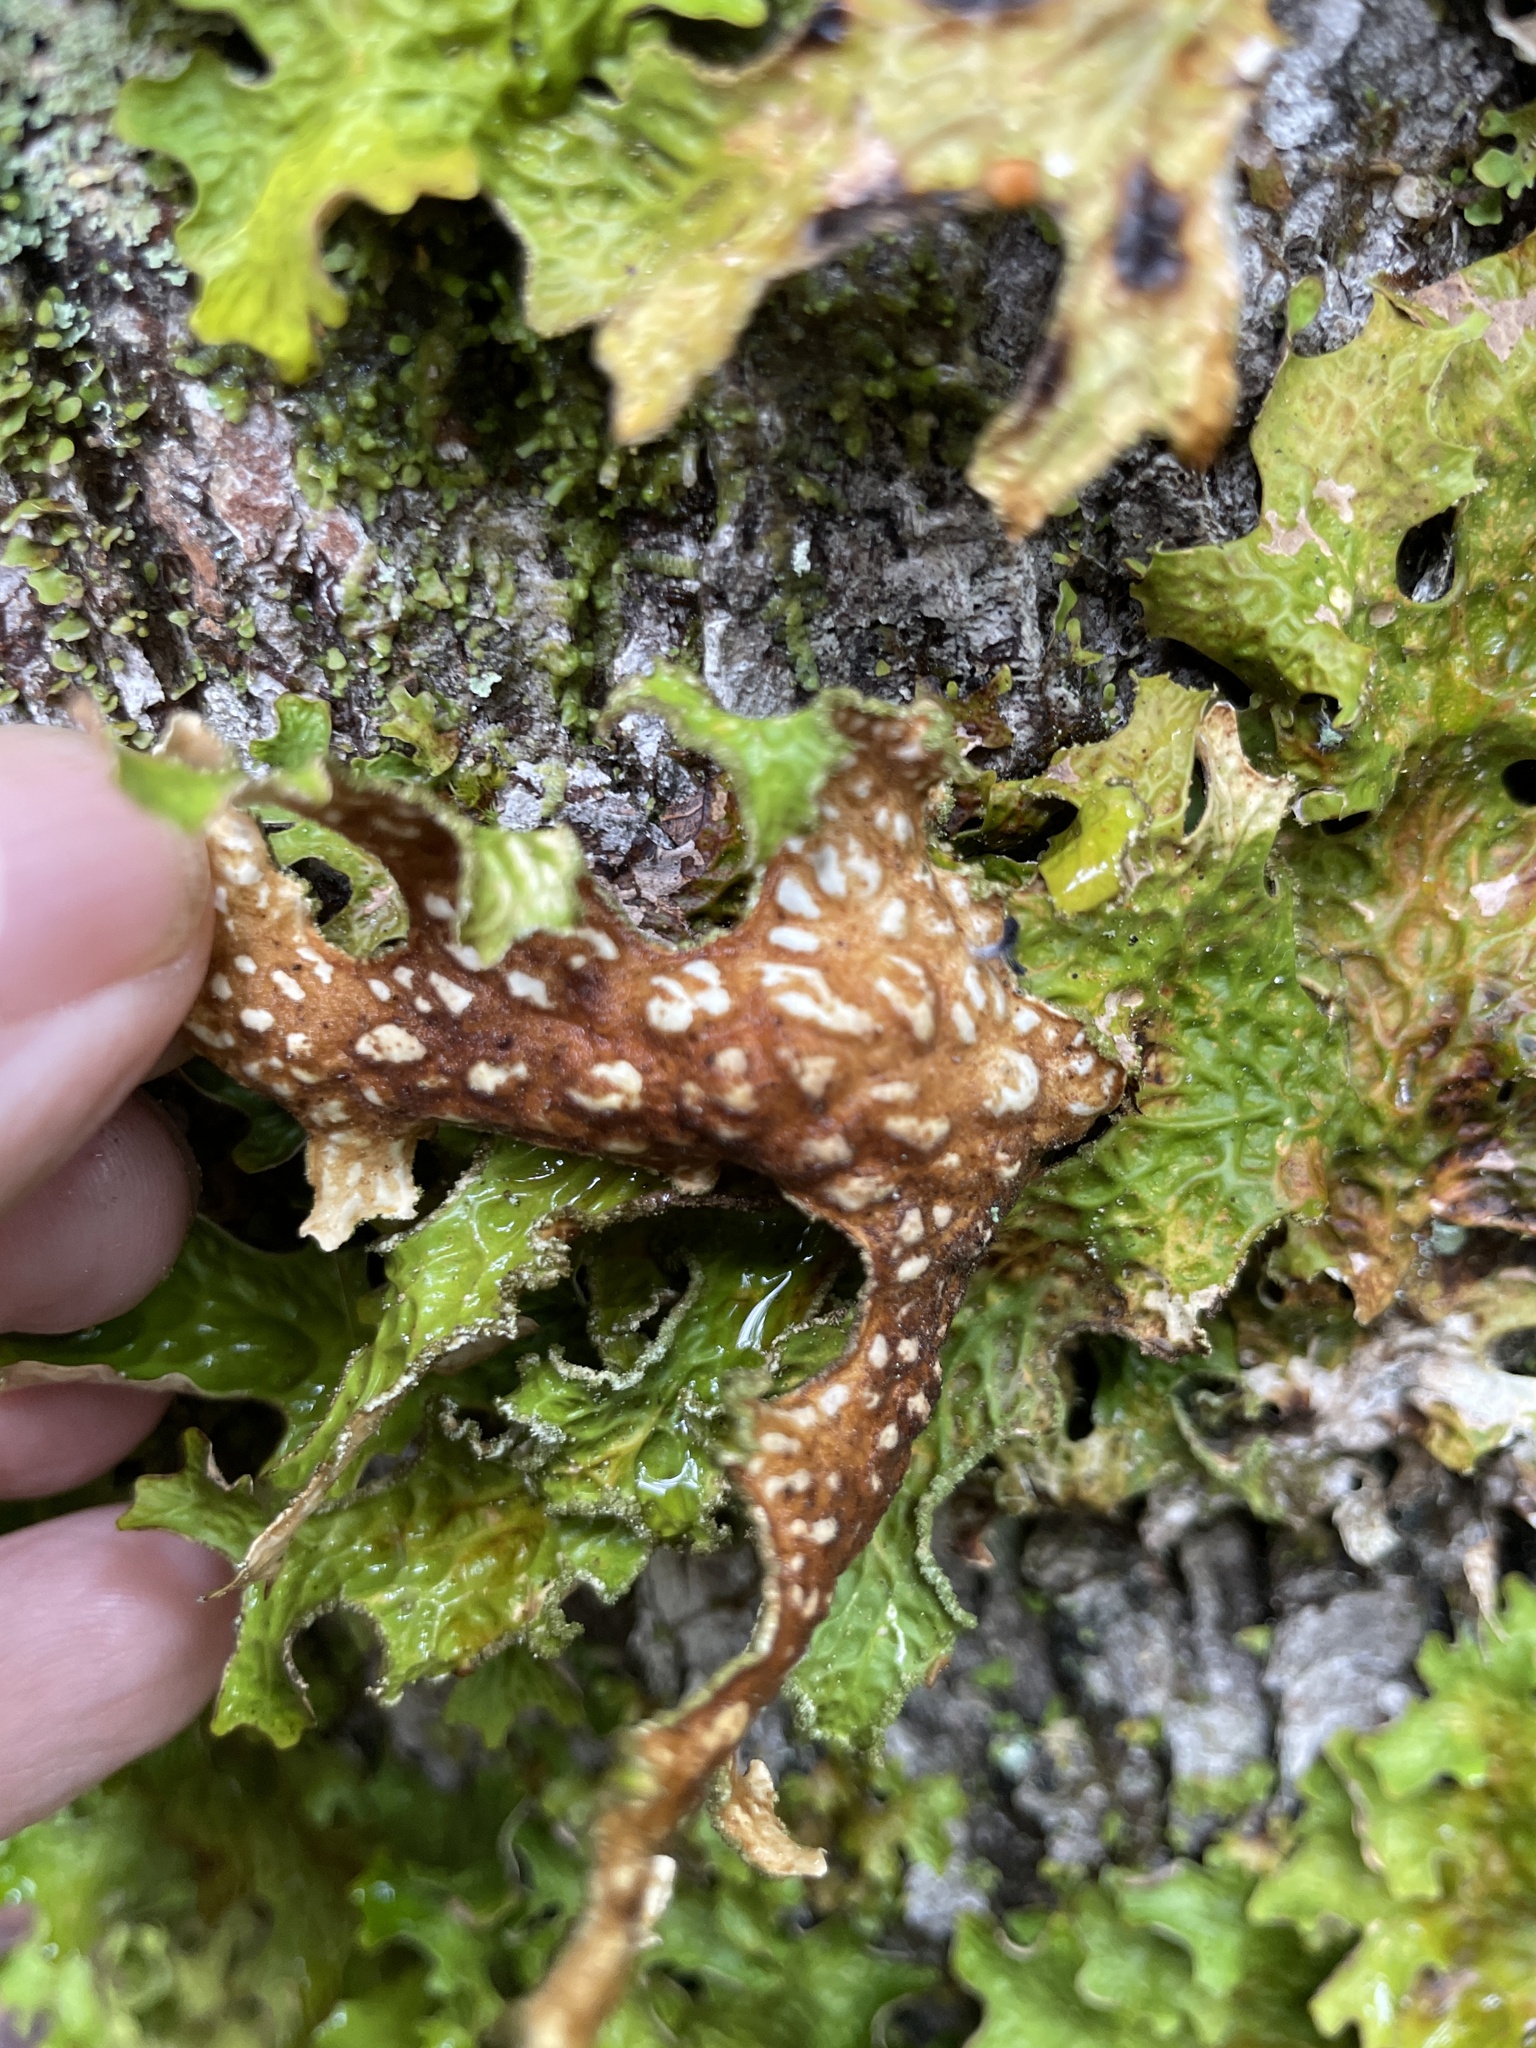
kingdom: Fungi
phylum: Ascomycota
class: Lecanoromycetes
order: Peltigerales
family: Lobariaceae
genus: Lobaria
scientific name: Lobaria pulmonaria
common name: Lungwort
